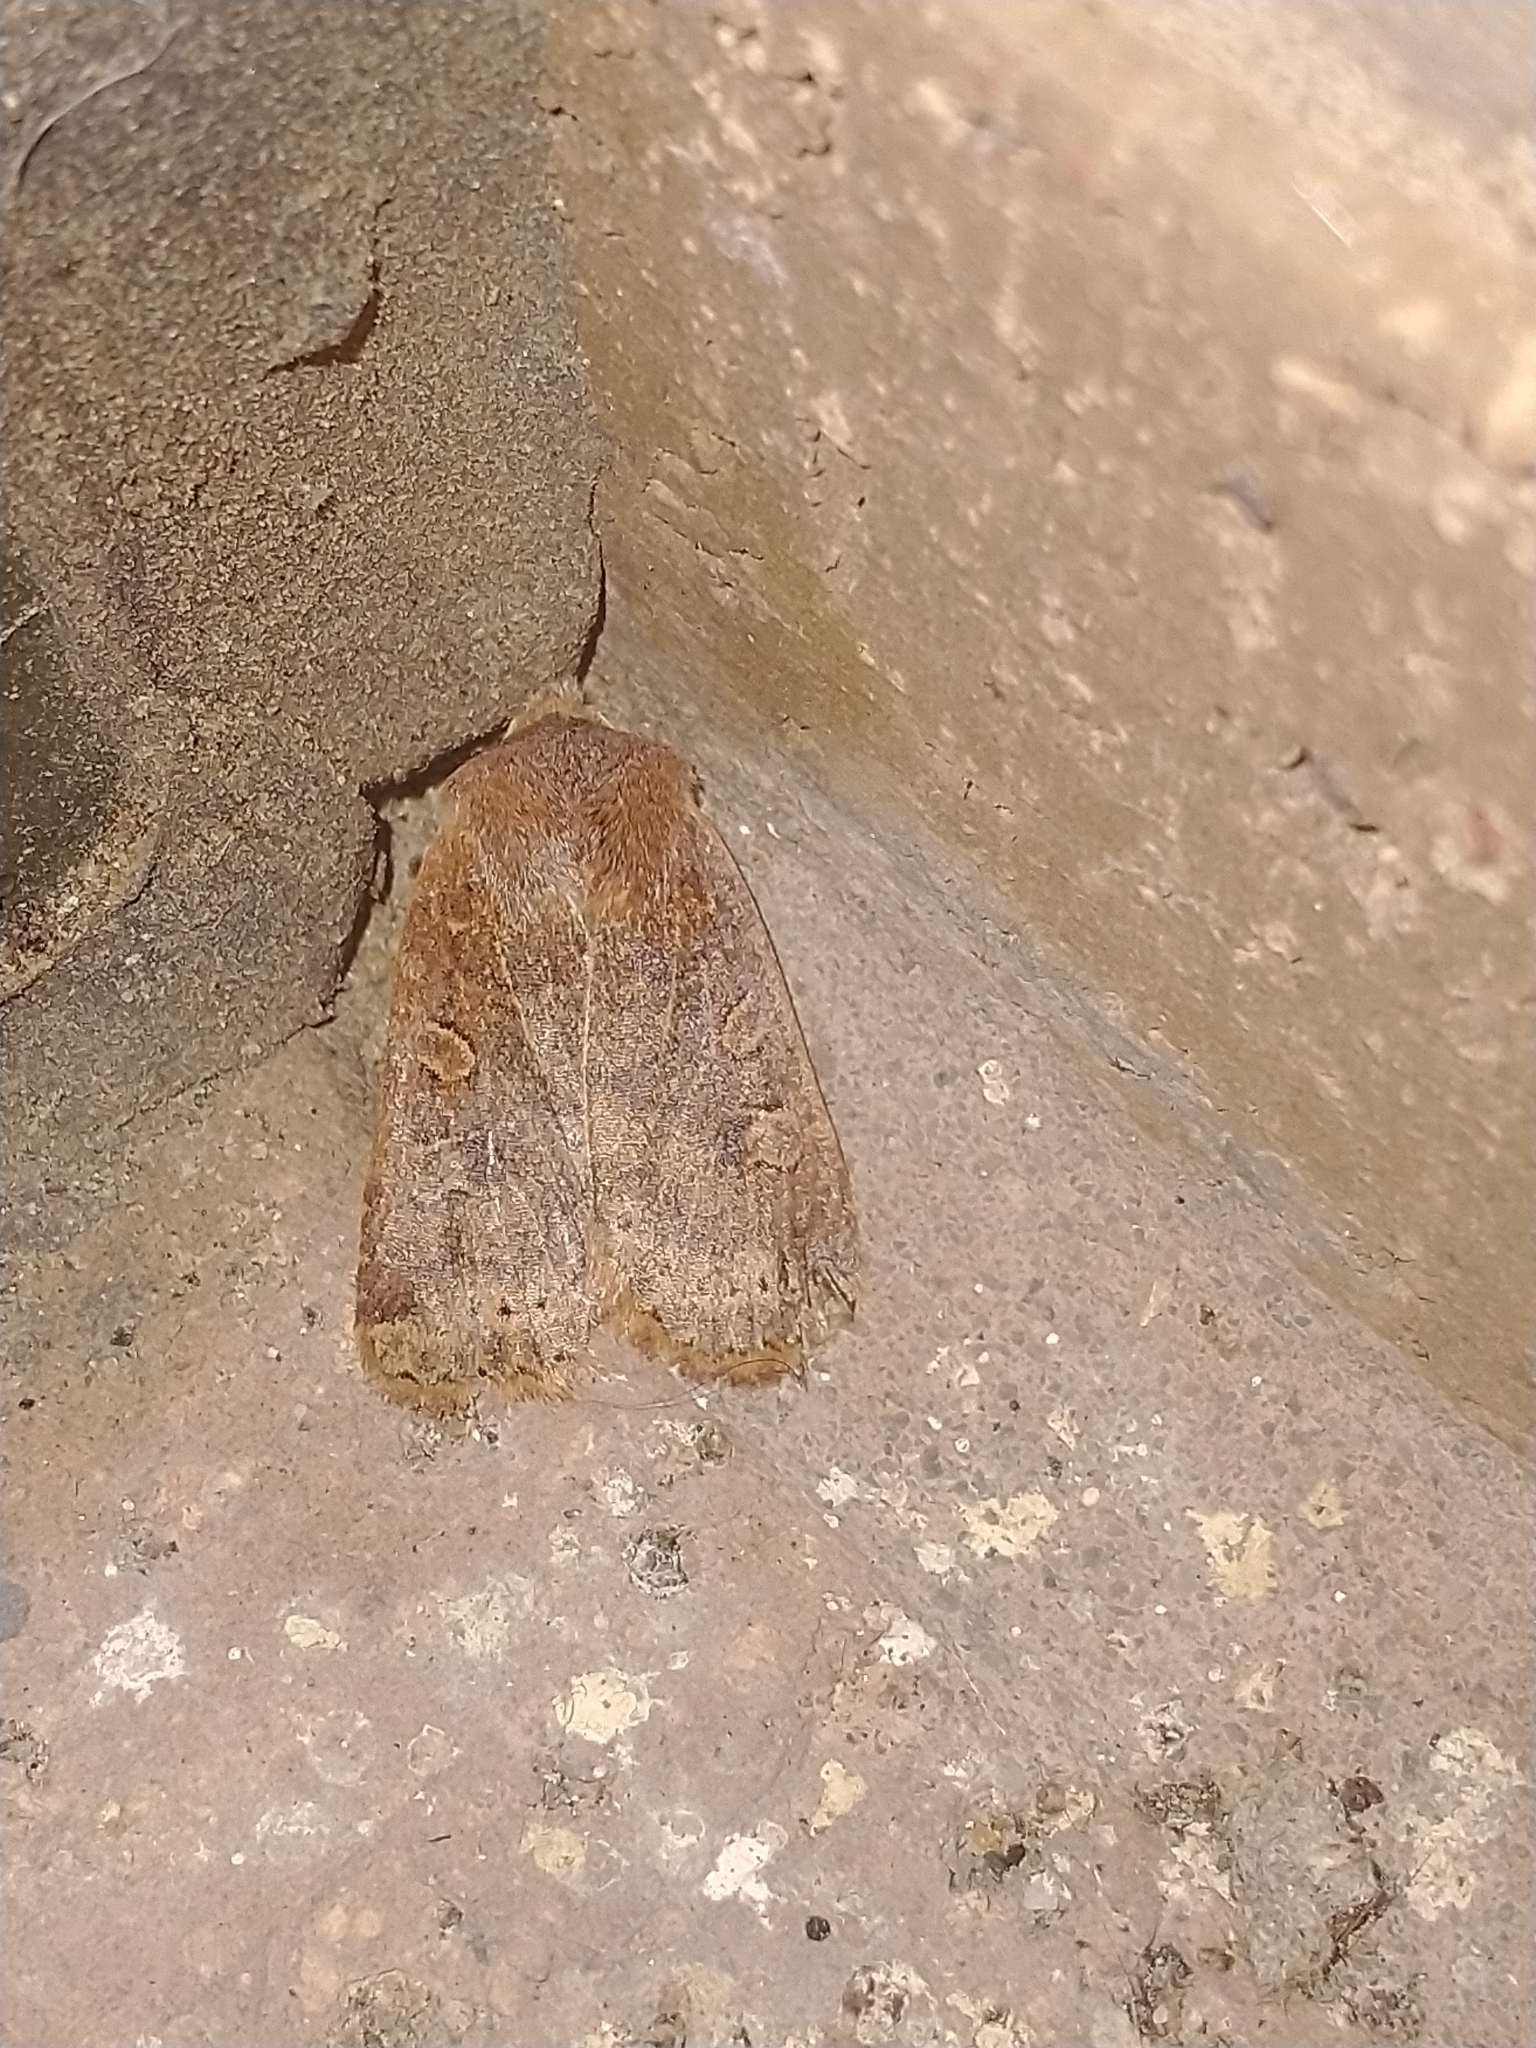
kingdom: Animalia
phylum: Arthropoda
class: Insecta
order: Lepidoptera
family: Noctuidae
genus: Conistra
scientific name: Conistra vaccinii
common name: Chestnut
